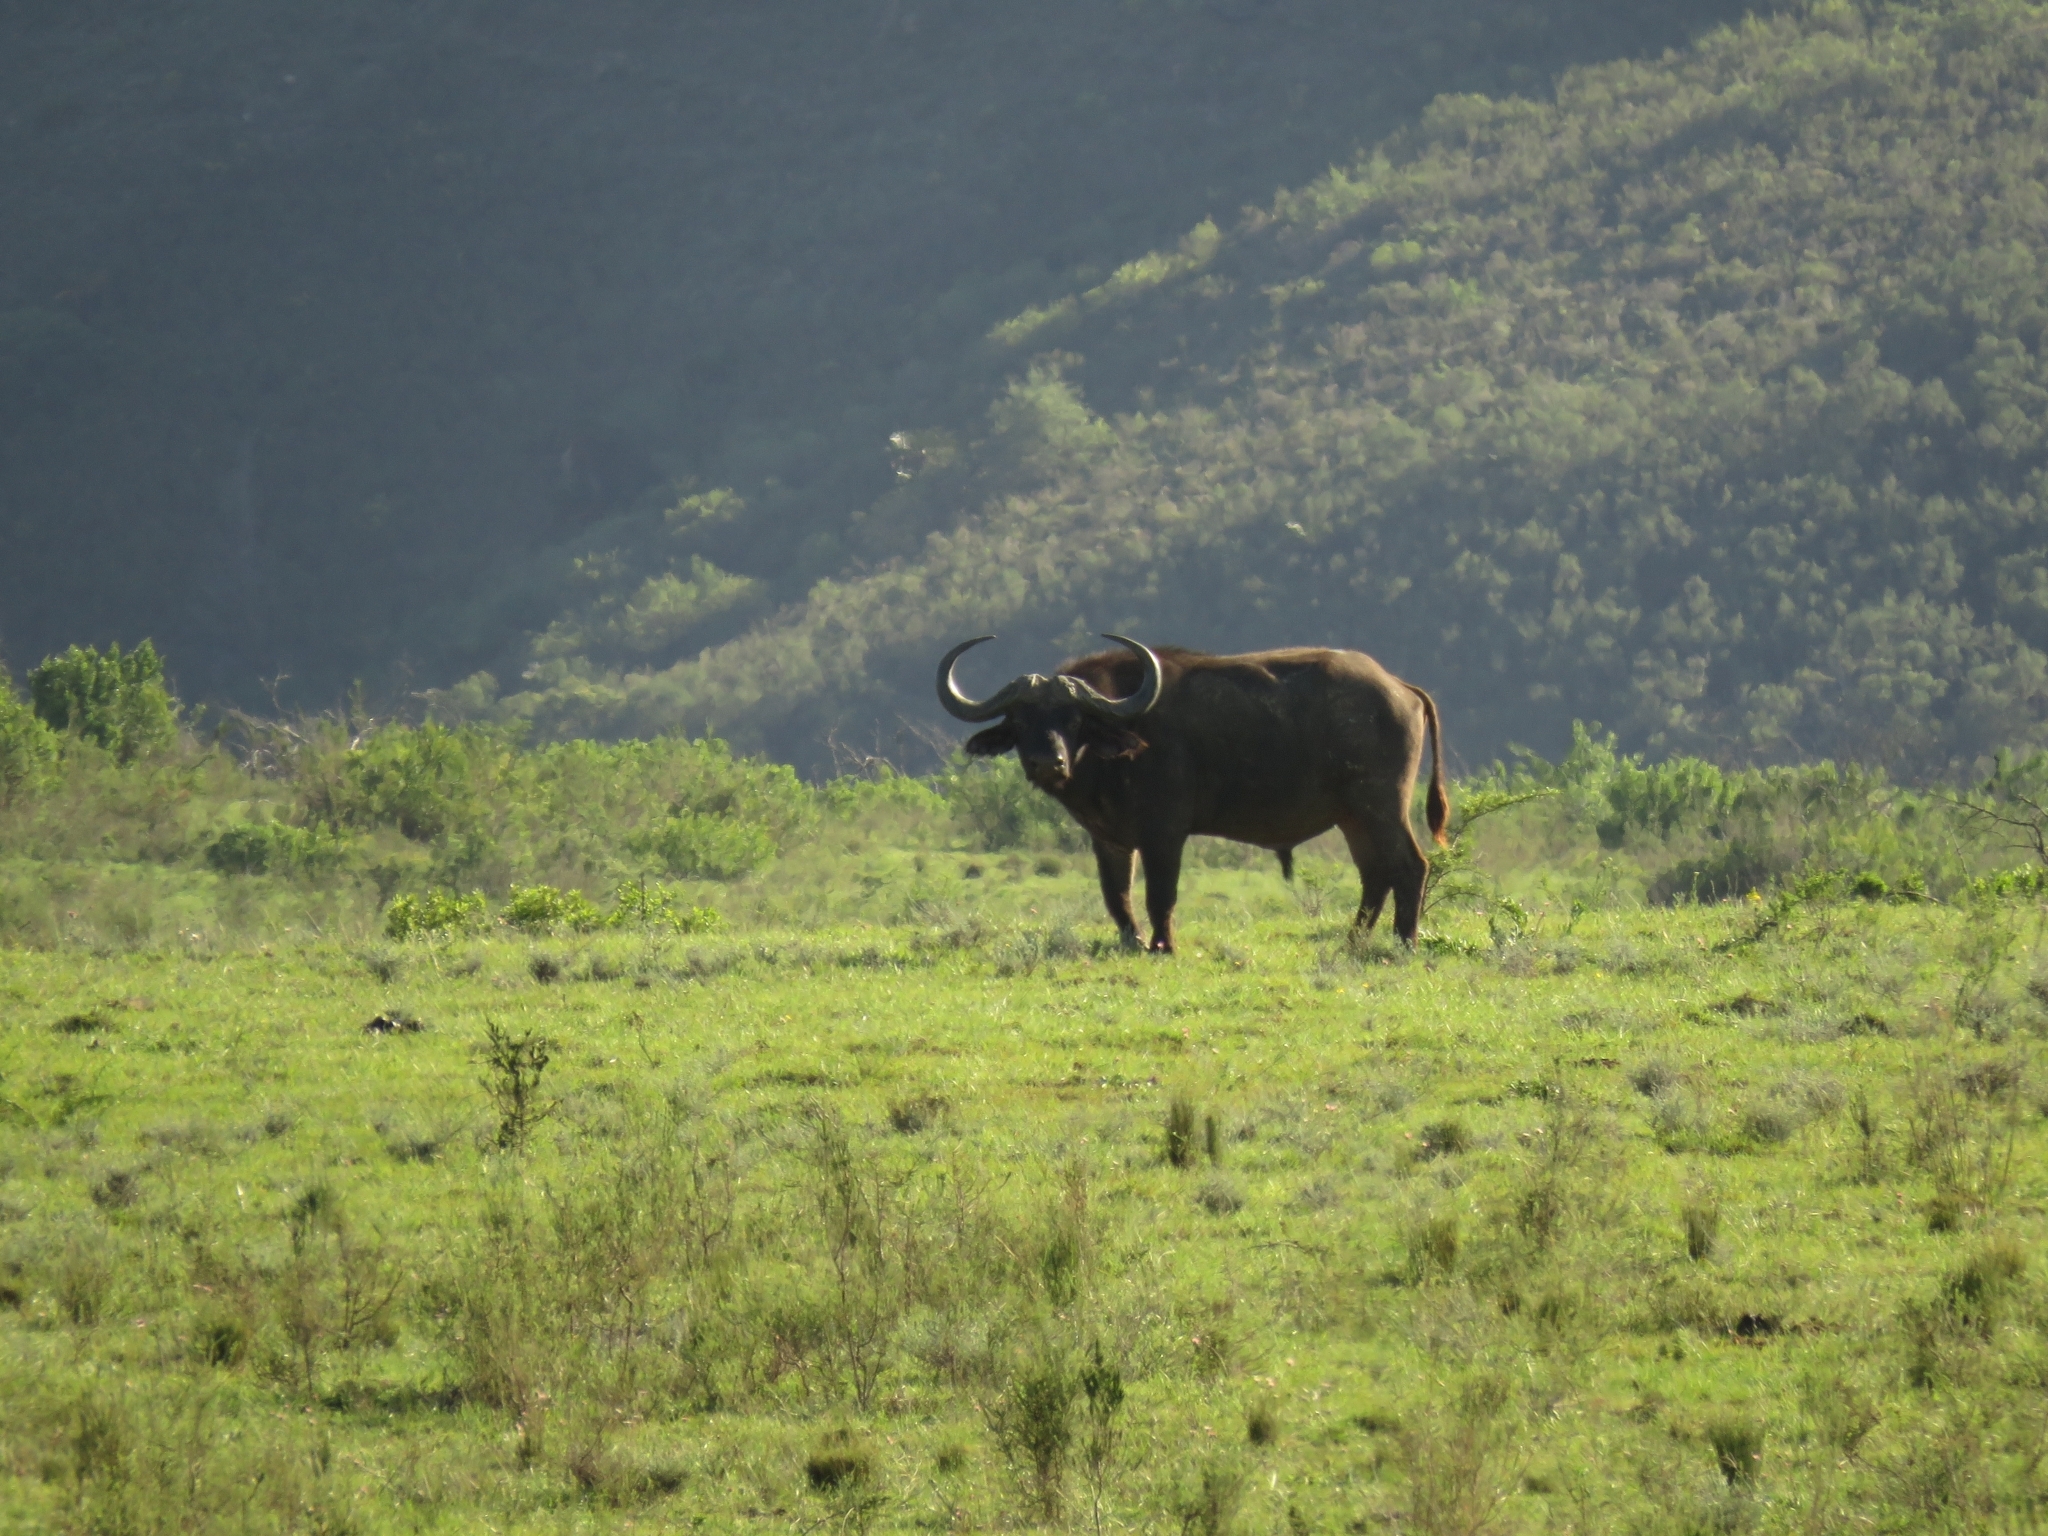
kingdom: Animalia
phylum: Chordata
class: Mammalia
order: Artiodactyla
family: Bovidae
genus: Syncerus
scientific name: Syncerus caffer
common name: African buffalo
